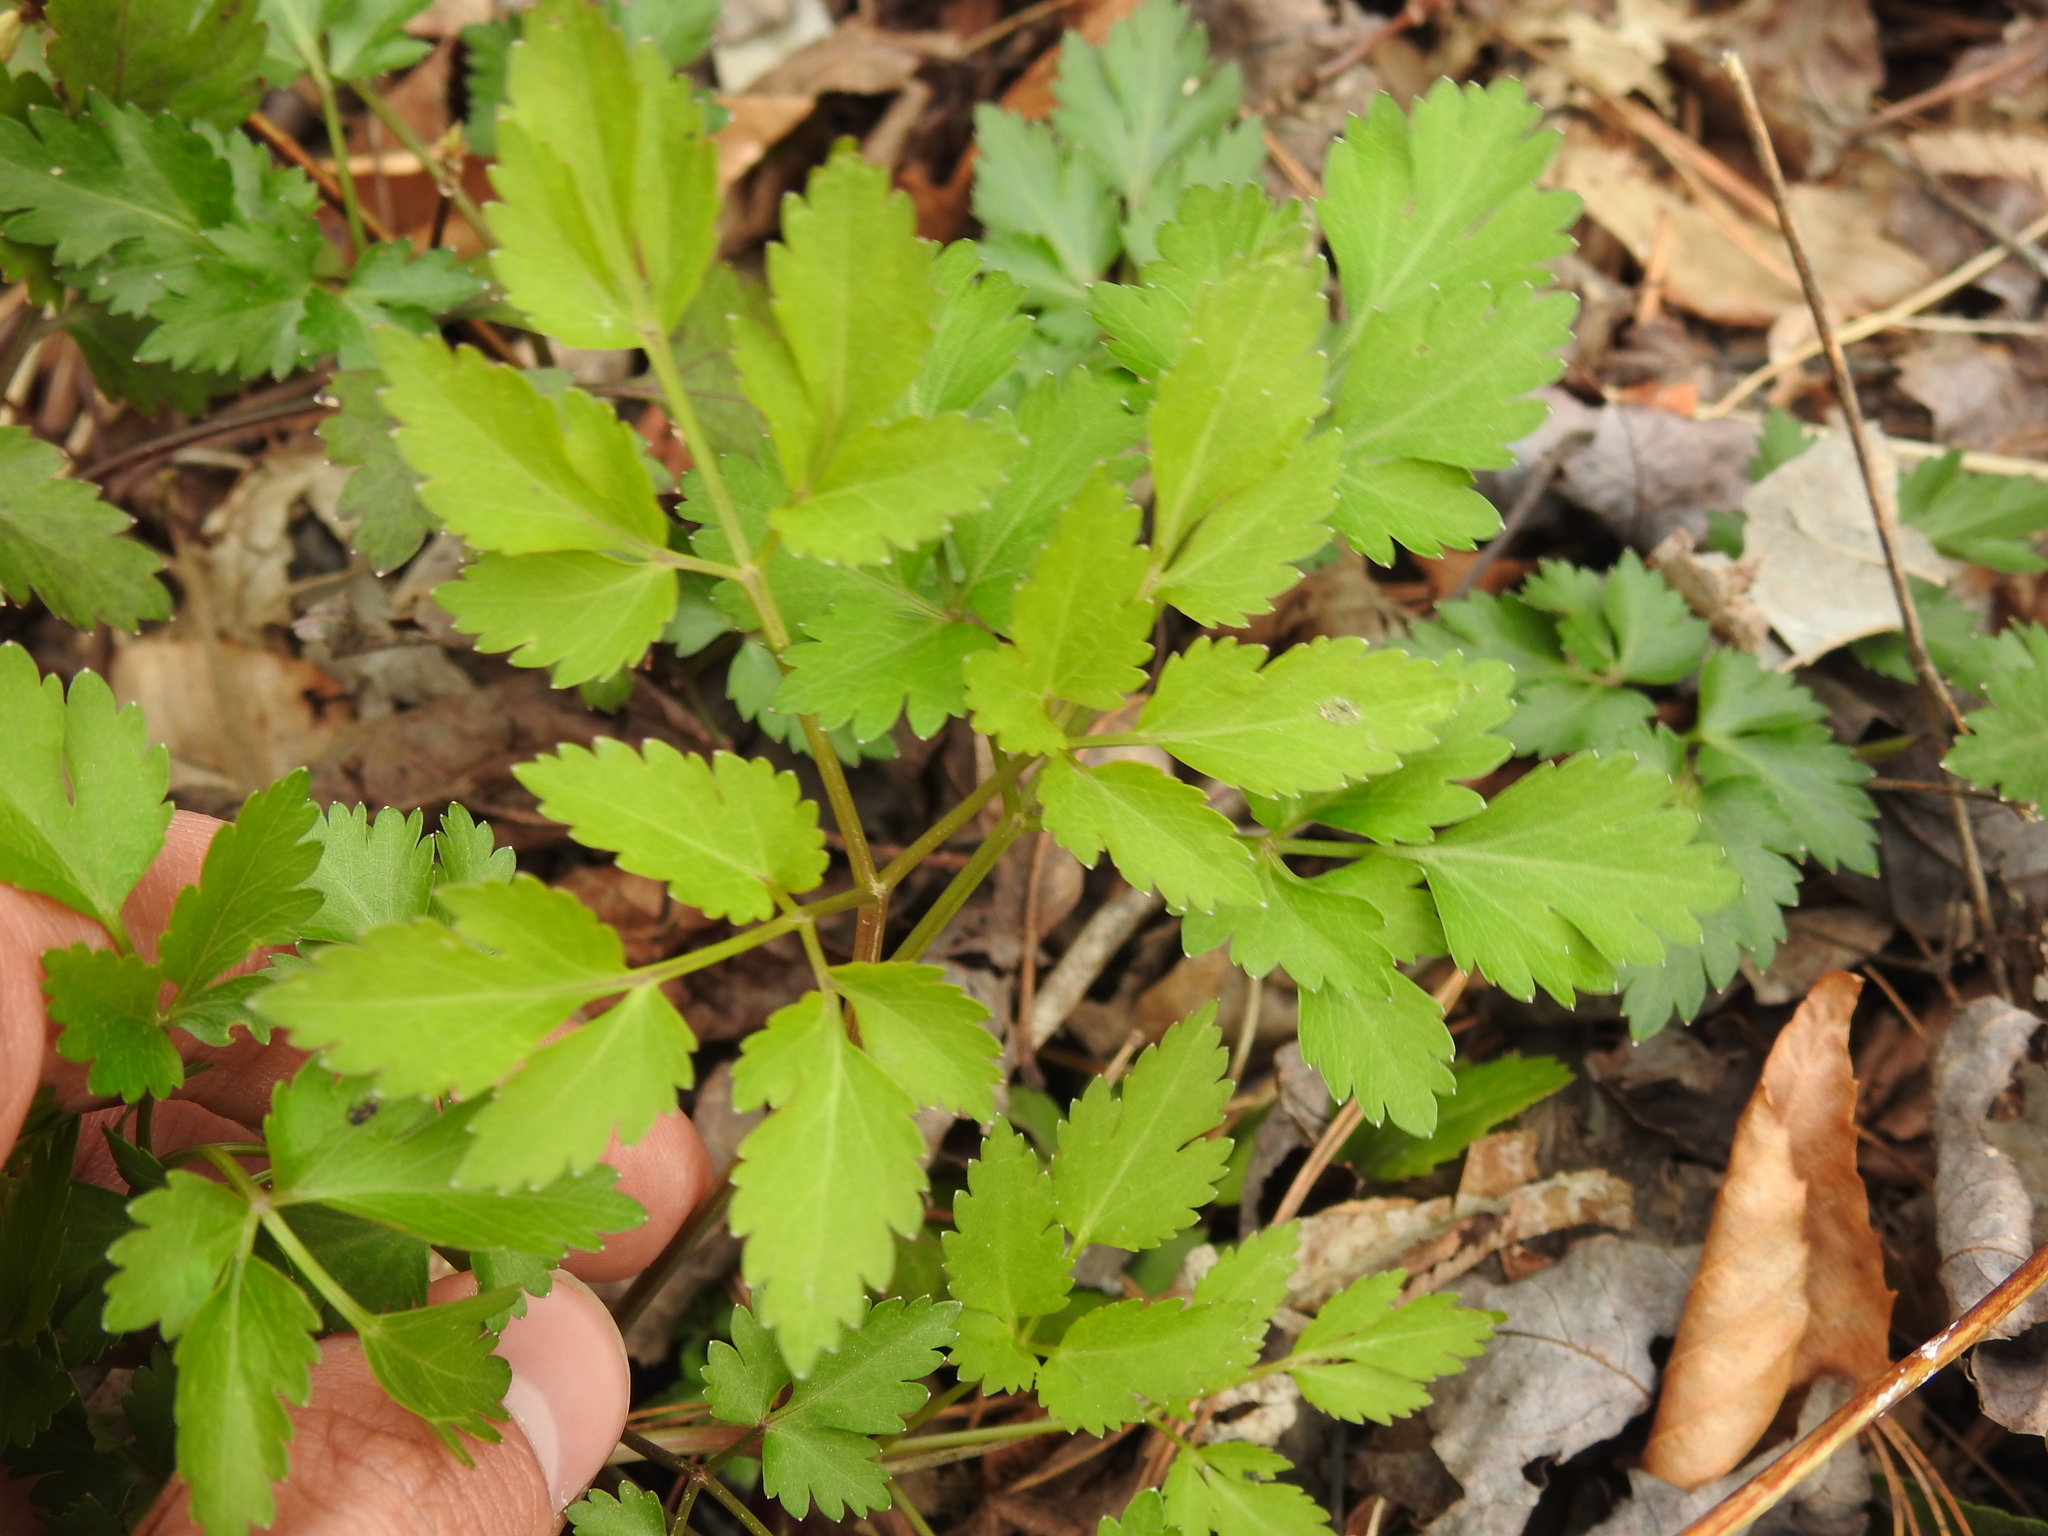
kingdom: Plantae
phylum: Tracheophyta
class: Magnoliopsida
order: Apiales
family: Apiaceae
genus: Thaspium
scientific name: Thaspium barbinode
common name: Bearded meadow-parsnip
